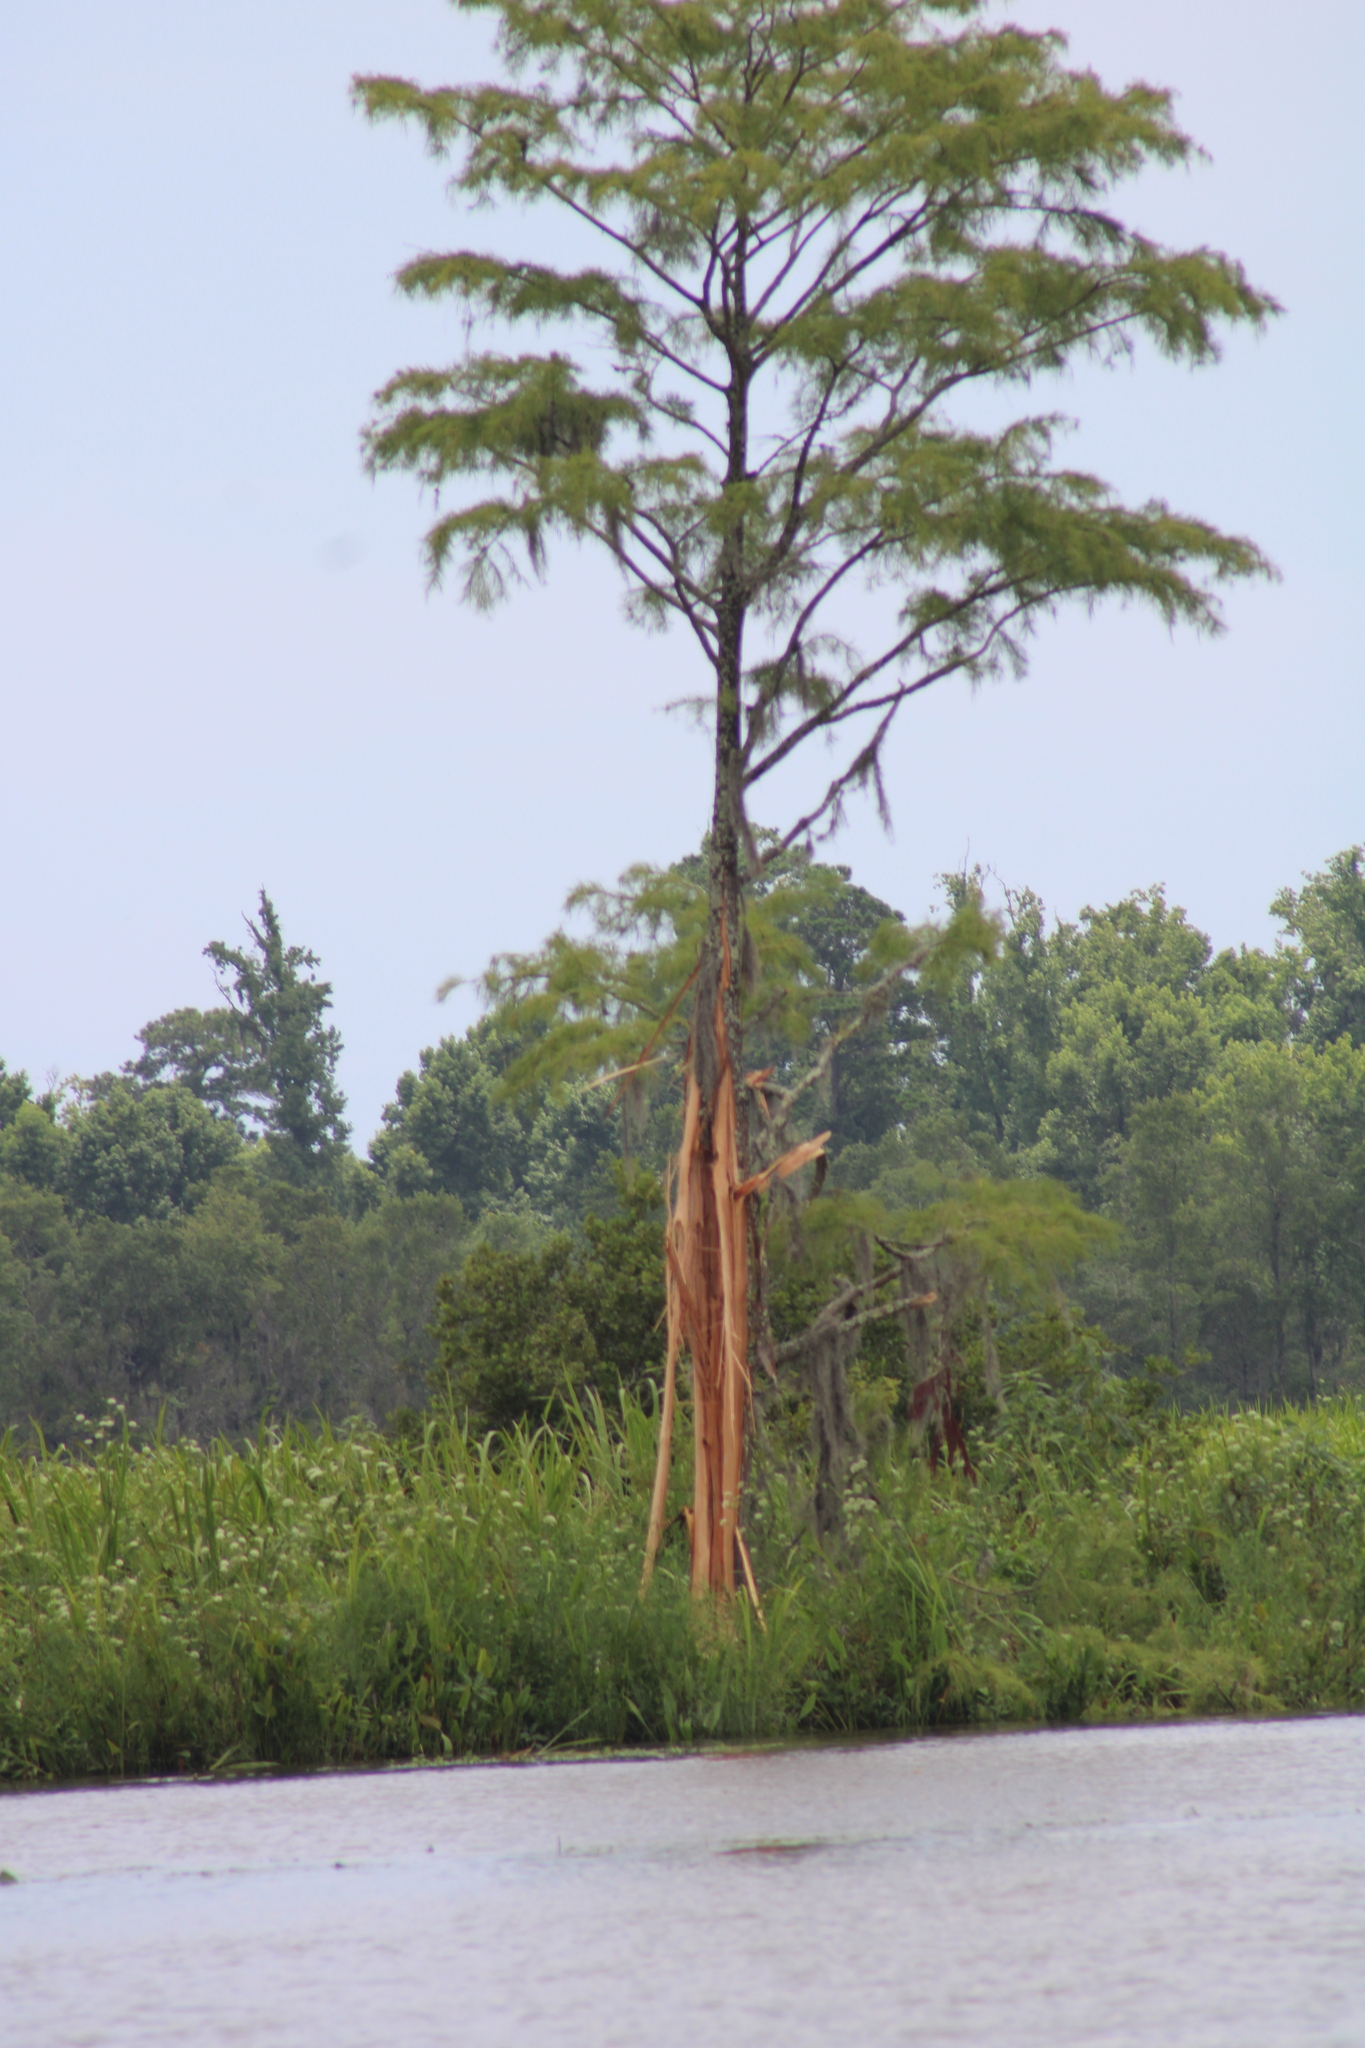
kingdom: Plantae
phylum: Tracheophyta
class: Pinopsida
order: Pinales
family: Cupressaceae
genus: Taxodium
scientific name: Taxodium distichum
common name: Bald cypress
